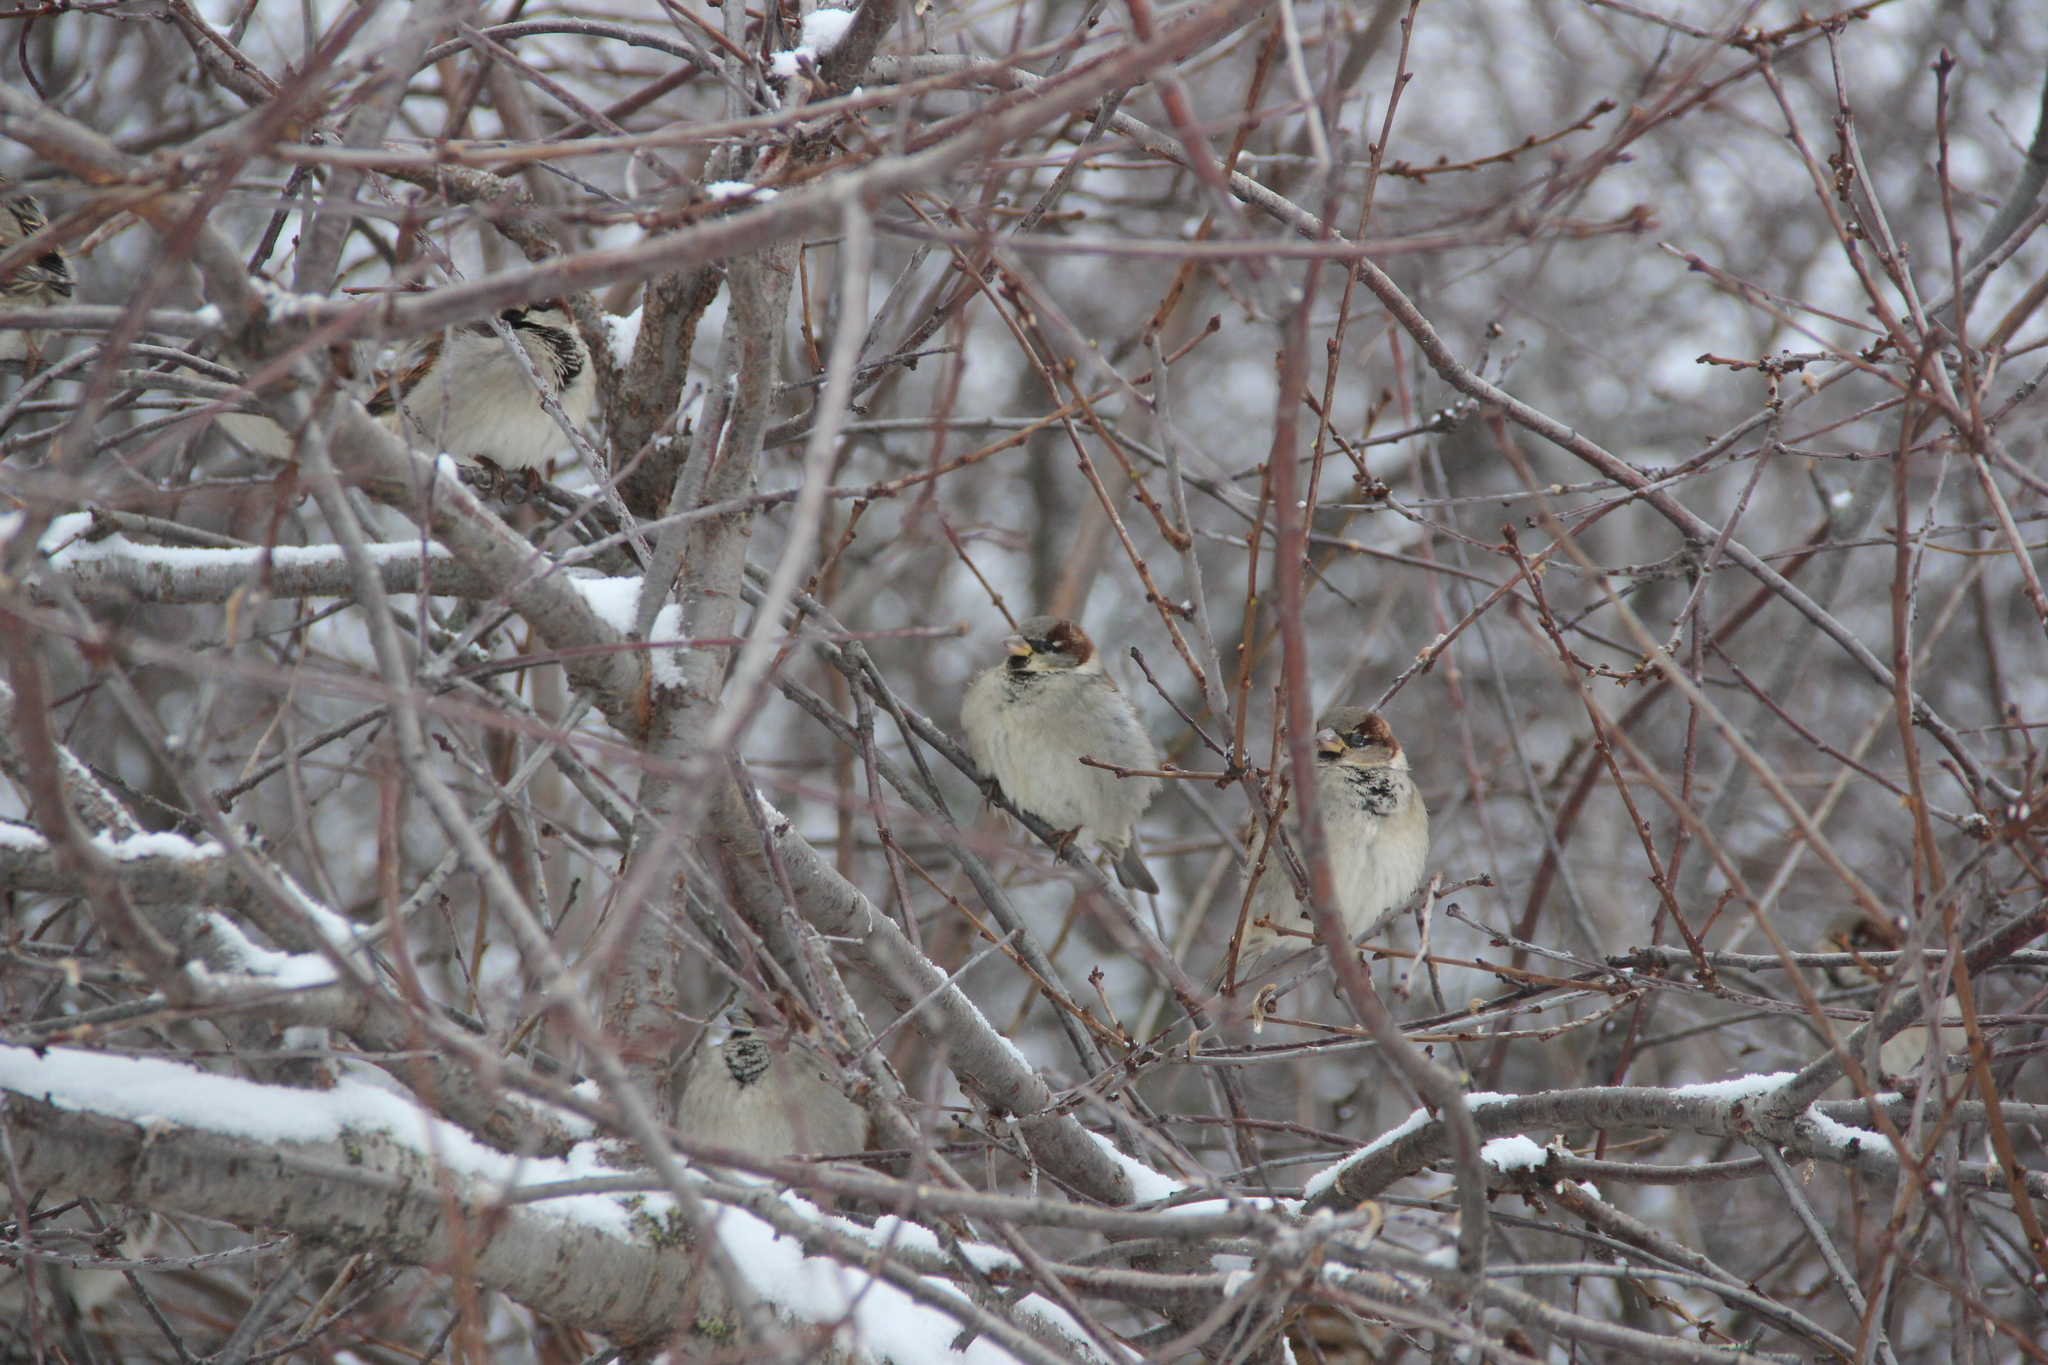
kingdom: Animalia
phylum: Chordata
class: Aves
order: Passeriformes
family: Passeridae
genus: Passer
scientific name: Passer domesticus
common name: House sparrow
